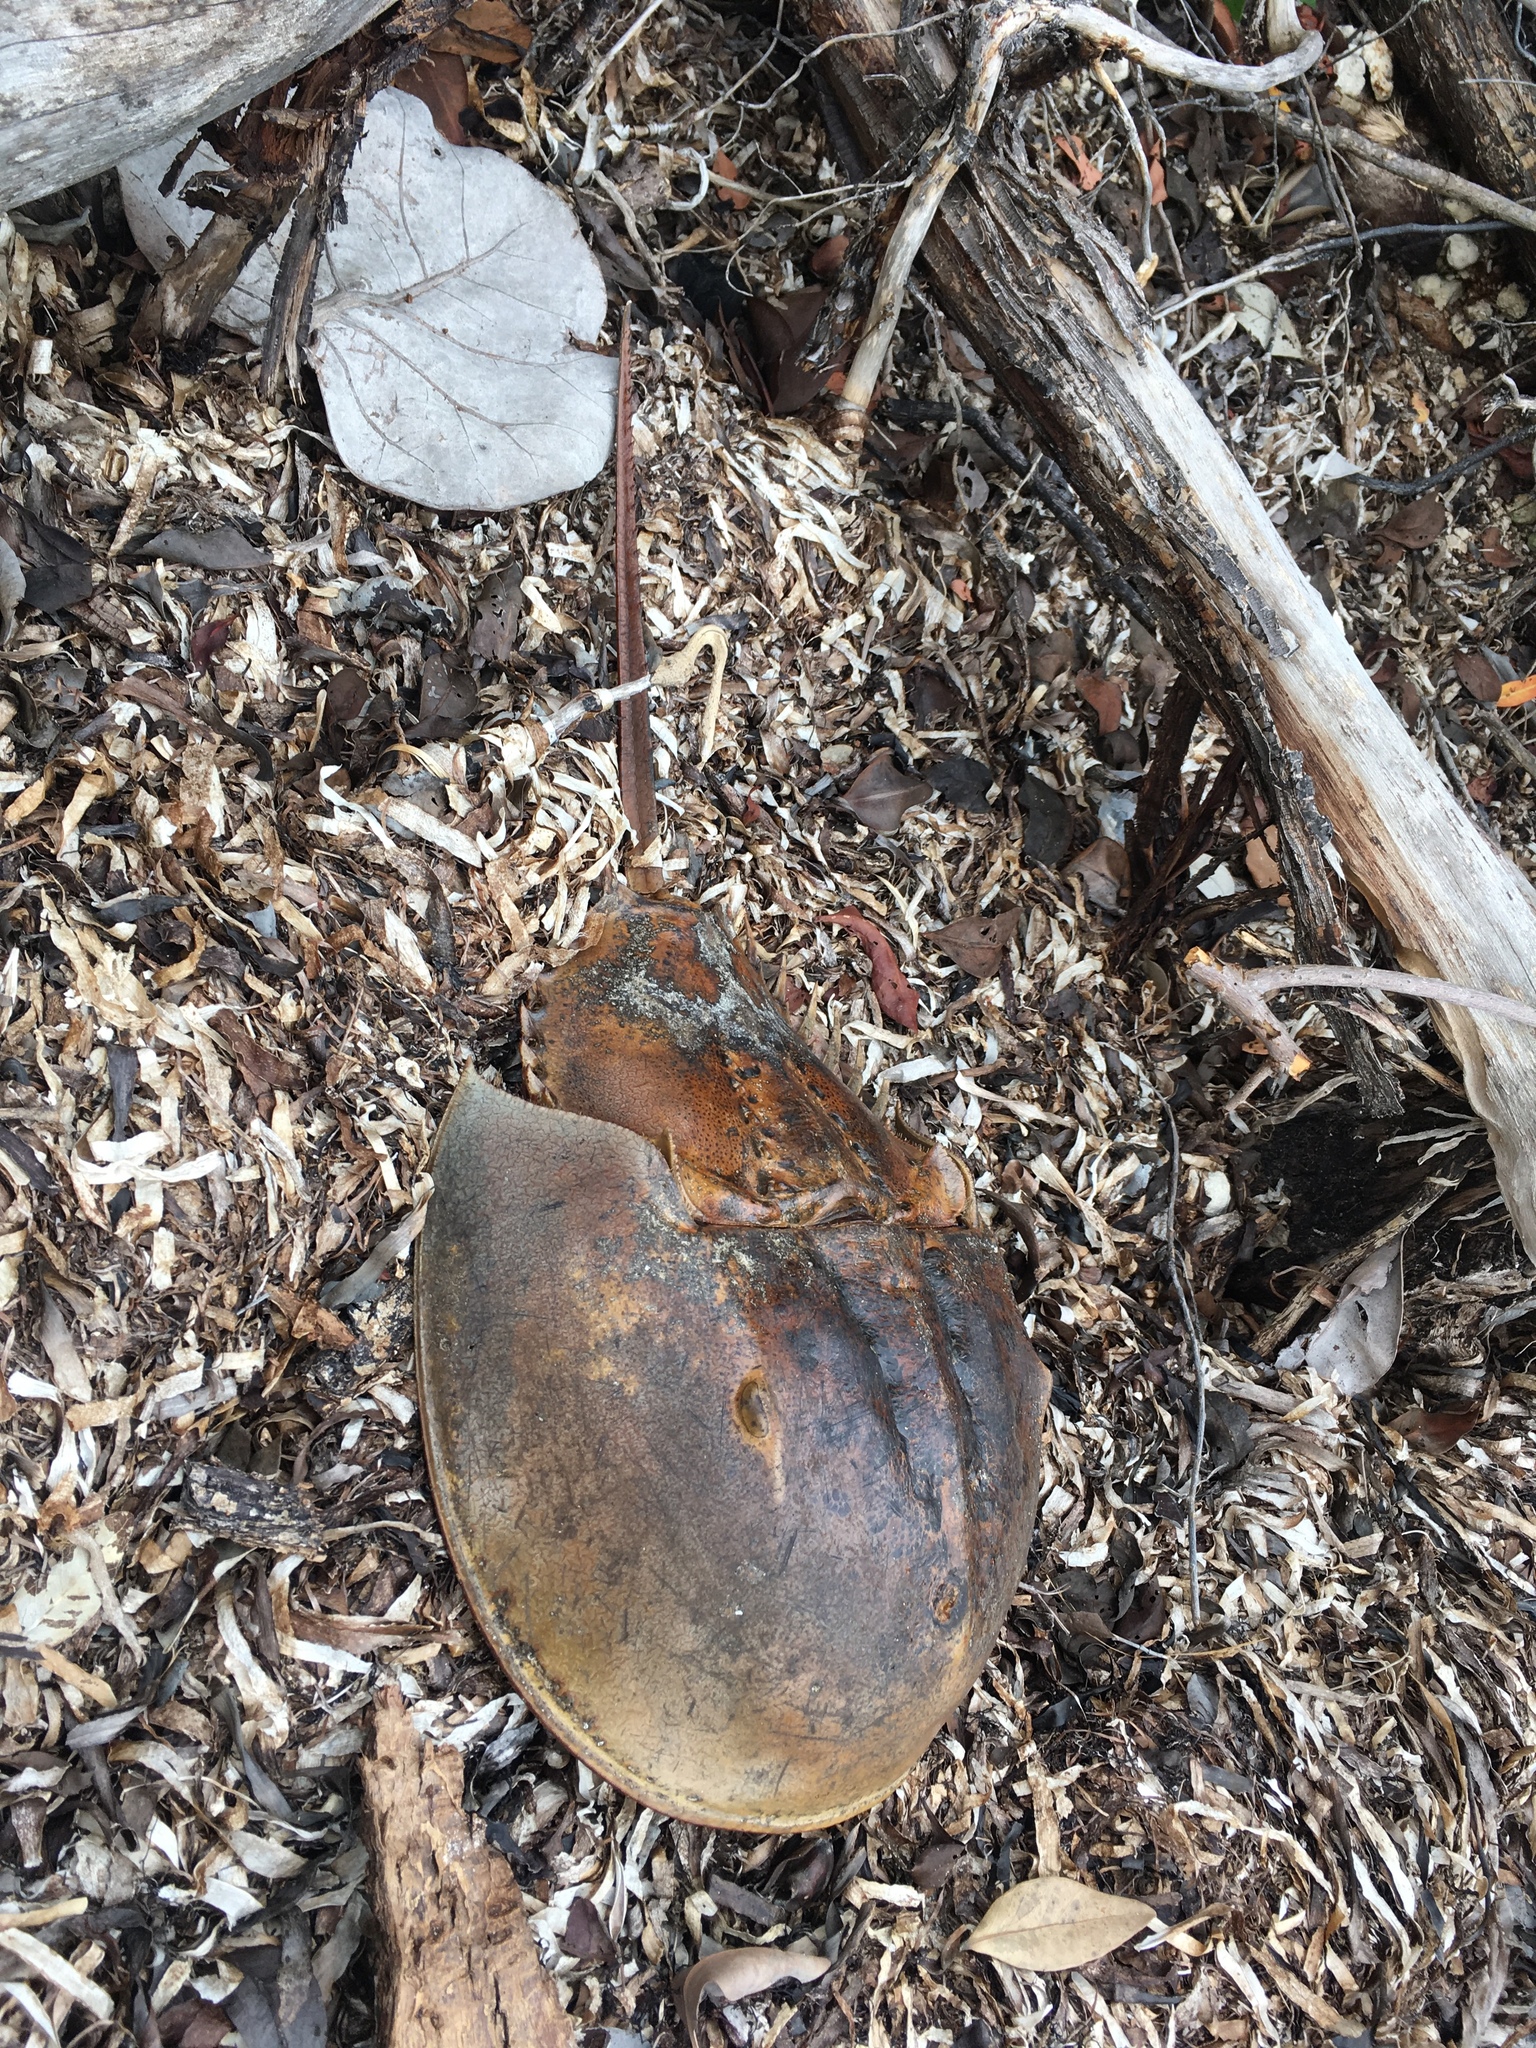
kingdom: Animalia
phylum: Arthropoda
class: Merostomata
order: Xiphosurida
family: Limulidae
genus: Limulus
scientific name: Limulus polyphemus
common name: Horseshoe crab
